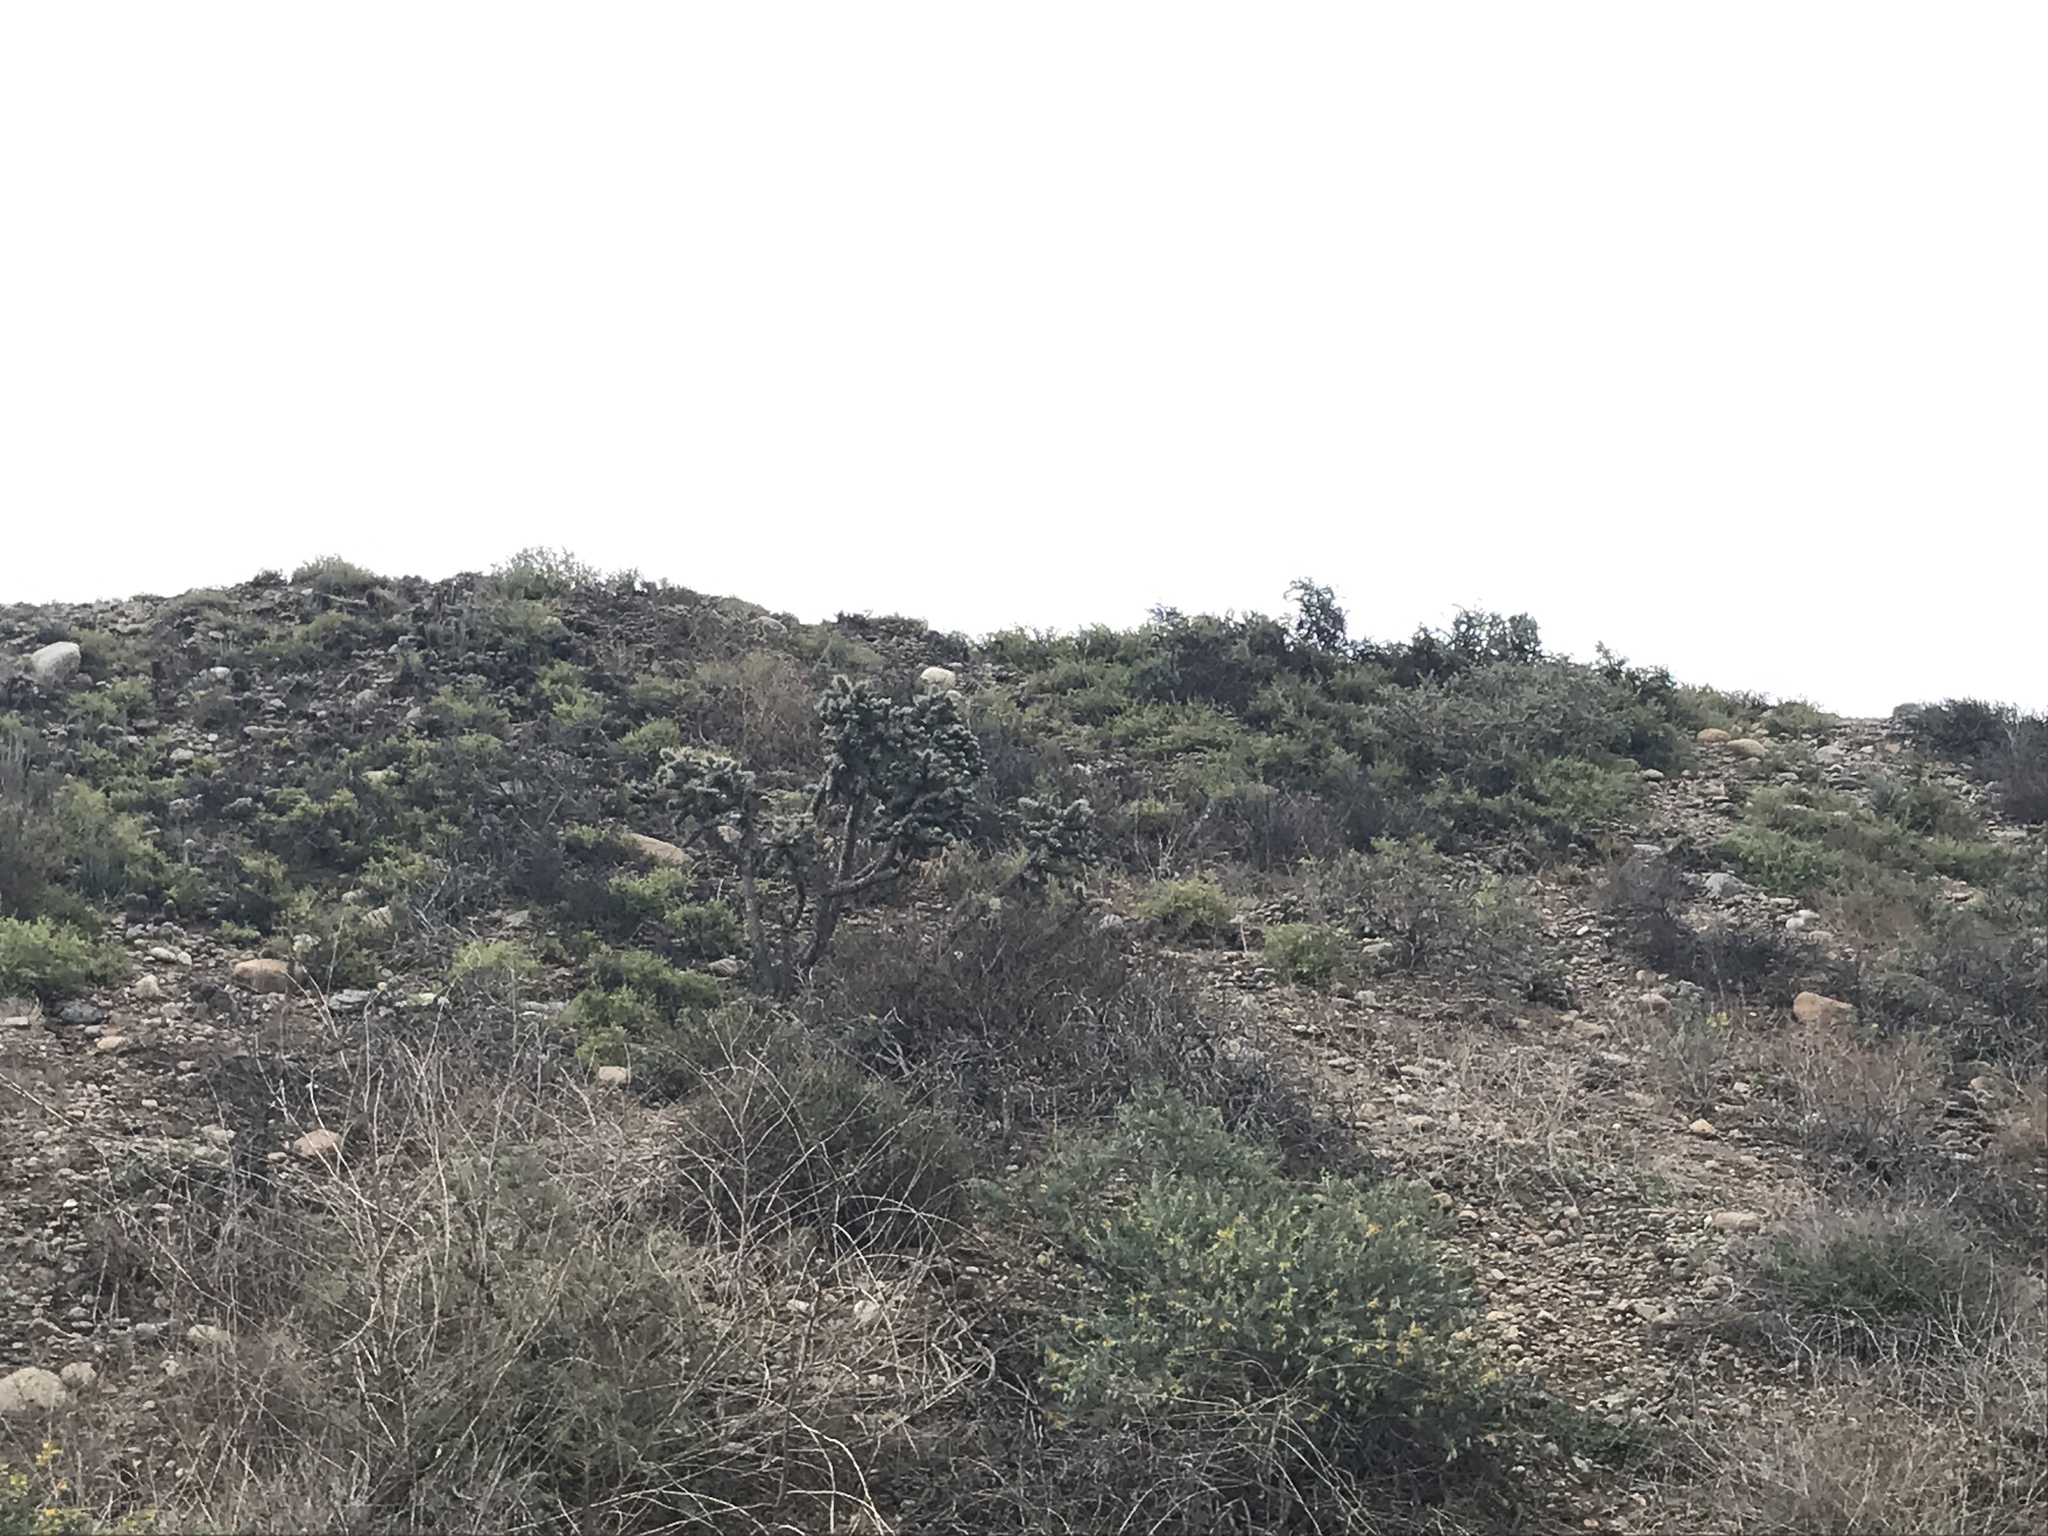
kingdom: Plantae
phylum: Tracheophyta
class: Magnoliopsida
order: Caryophyllales
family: Cactaceae
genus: Cylindropuntia
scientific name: Cylindropuntia prolifera
